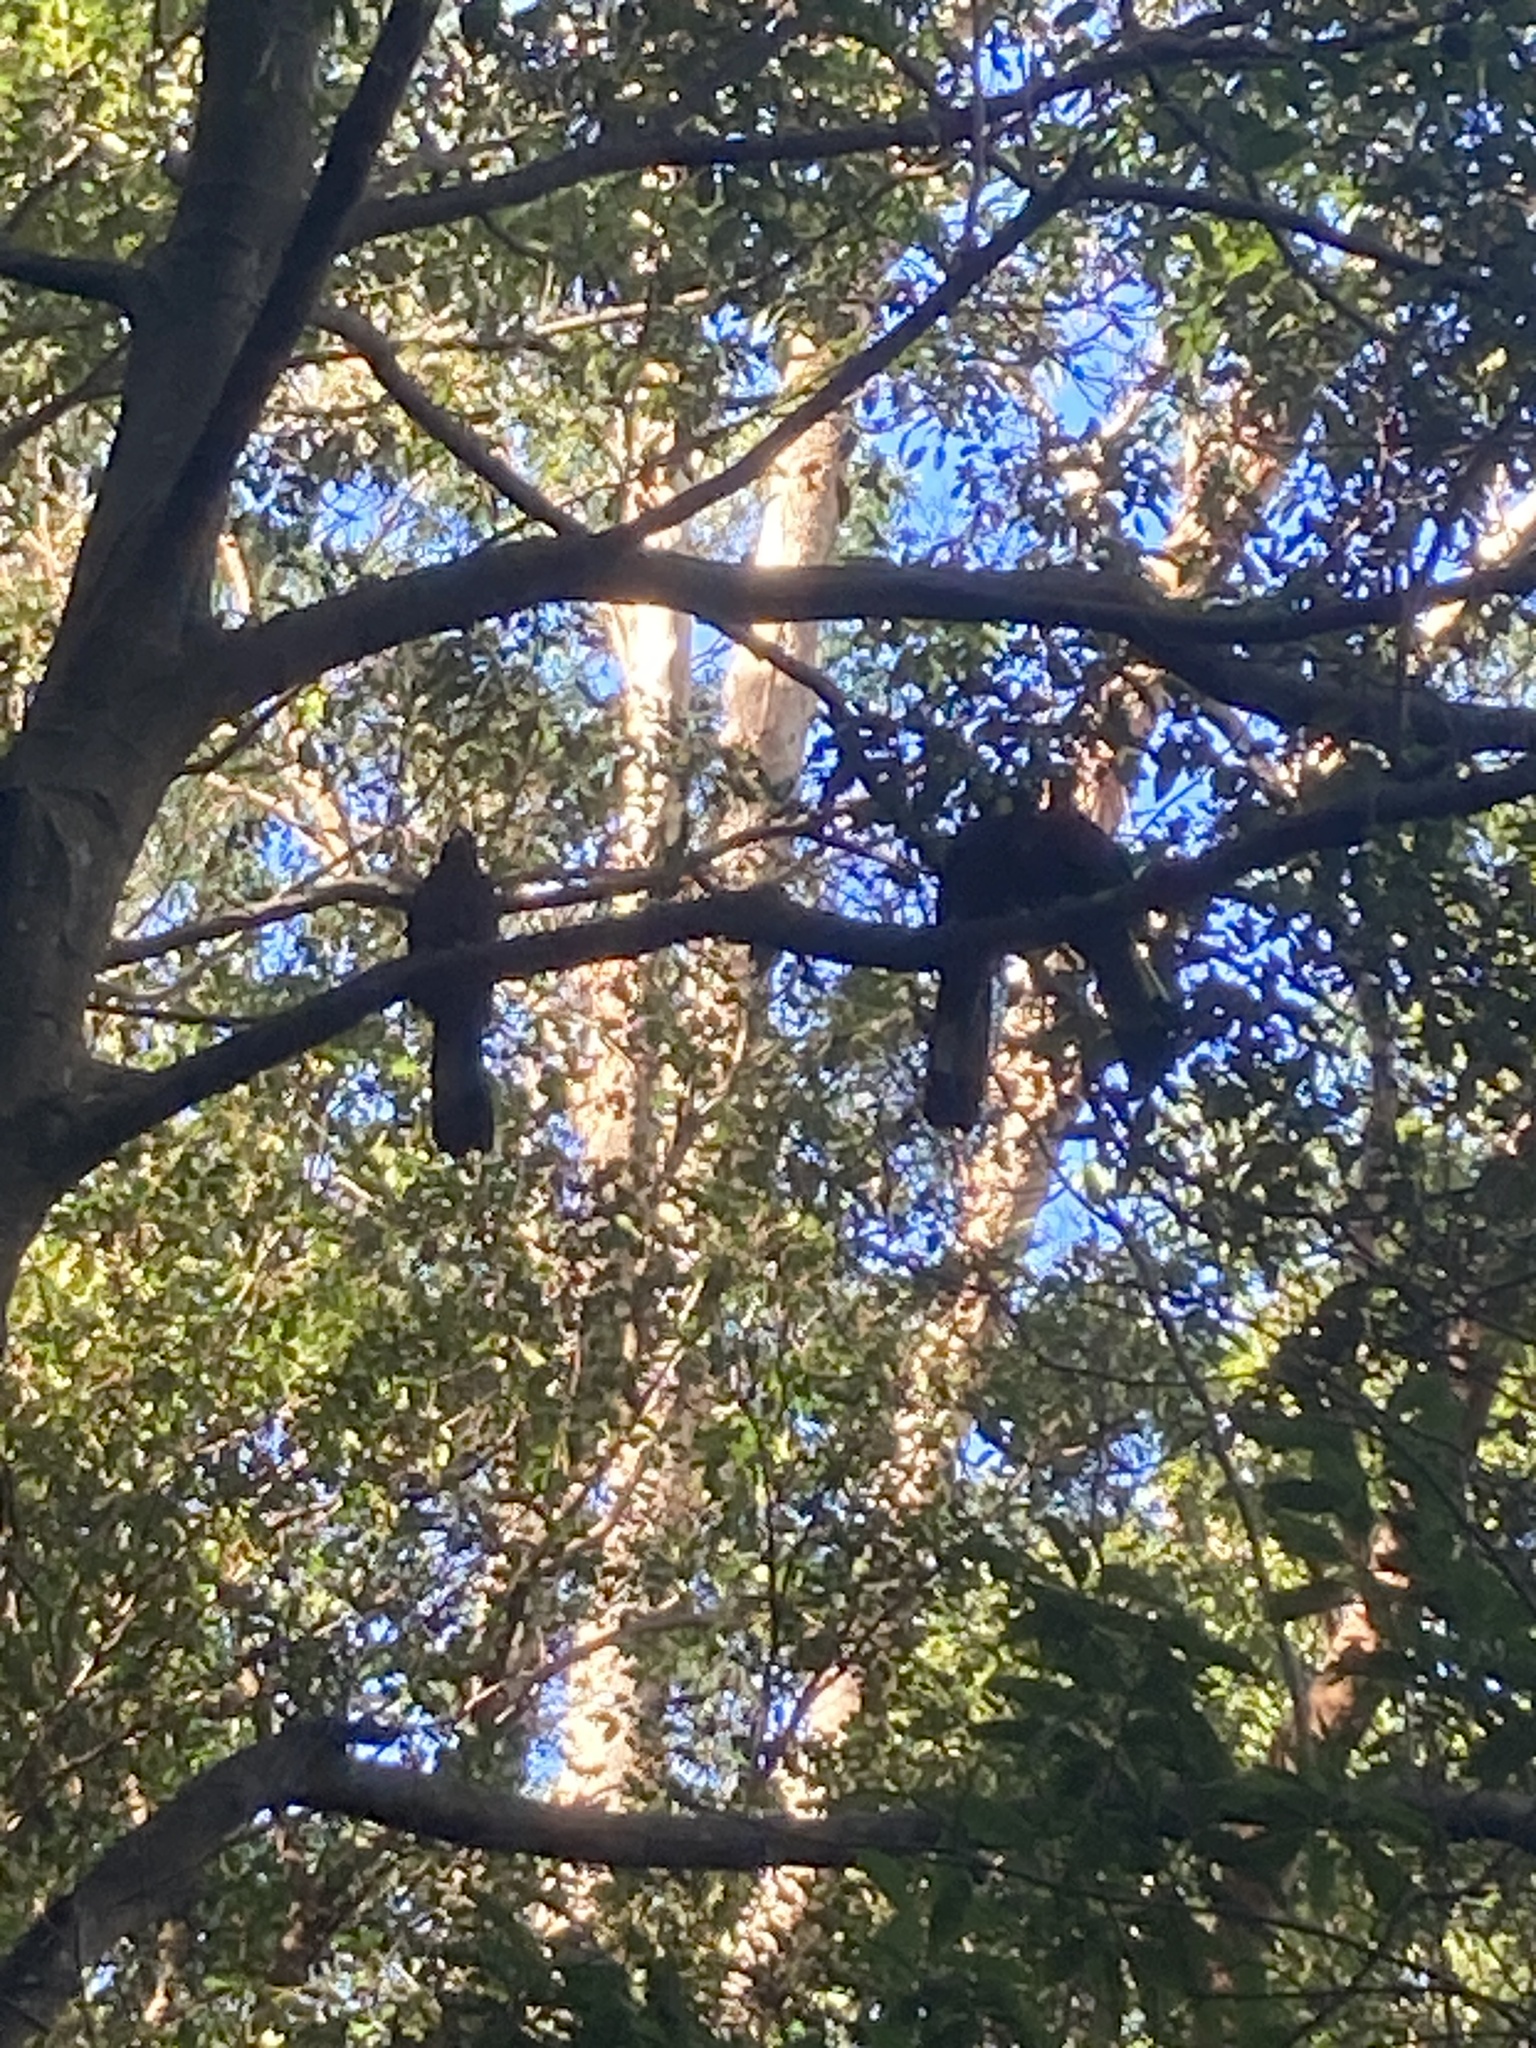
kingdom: Animalia
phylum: Chordata
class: Aves
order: Psittaciformes
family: Cacatuidae
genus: Zanda
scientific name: Zanda funerea
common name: Yellow-tailed black-cockatoo
